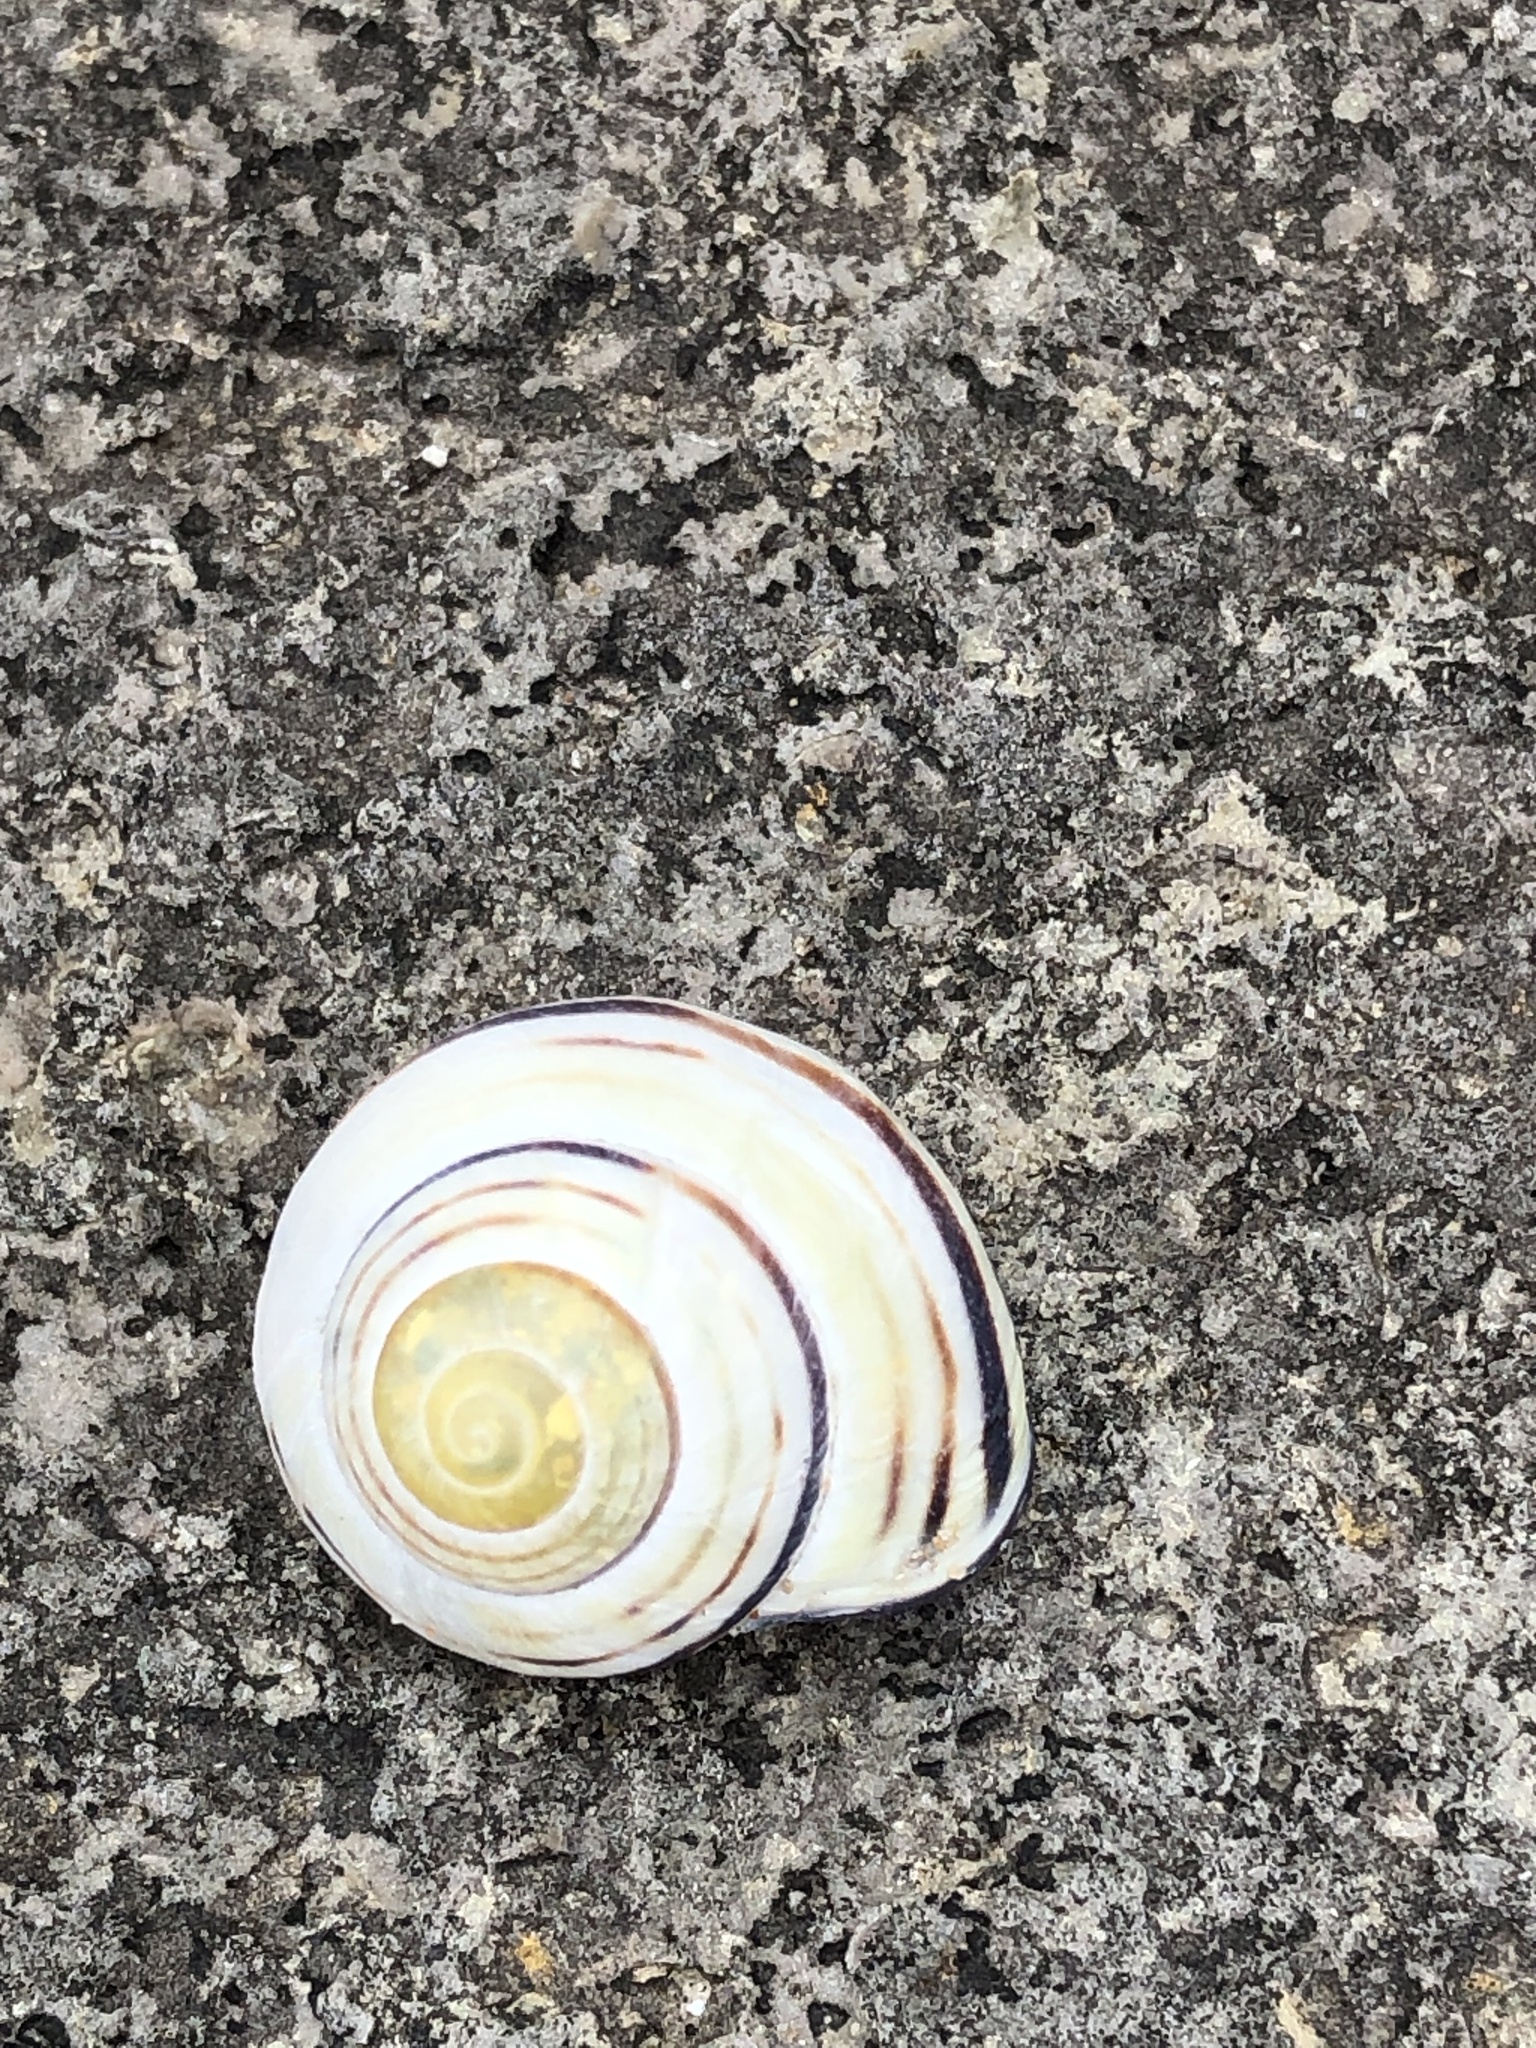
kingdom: Animalia
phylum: Mollusca
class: Gastropoda
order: Stylommatophora
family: Helicidae
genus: Cepaea
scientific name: Cepaea nemoralis
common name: Grovesnail
